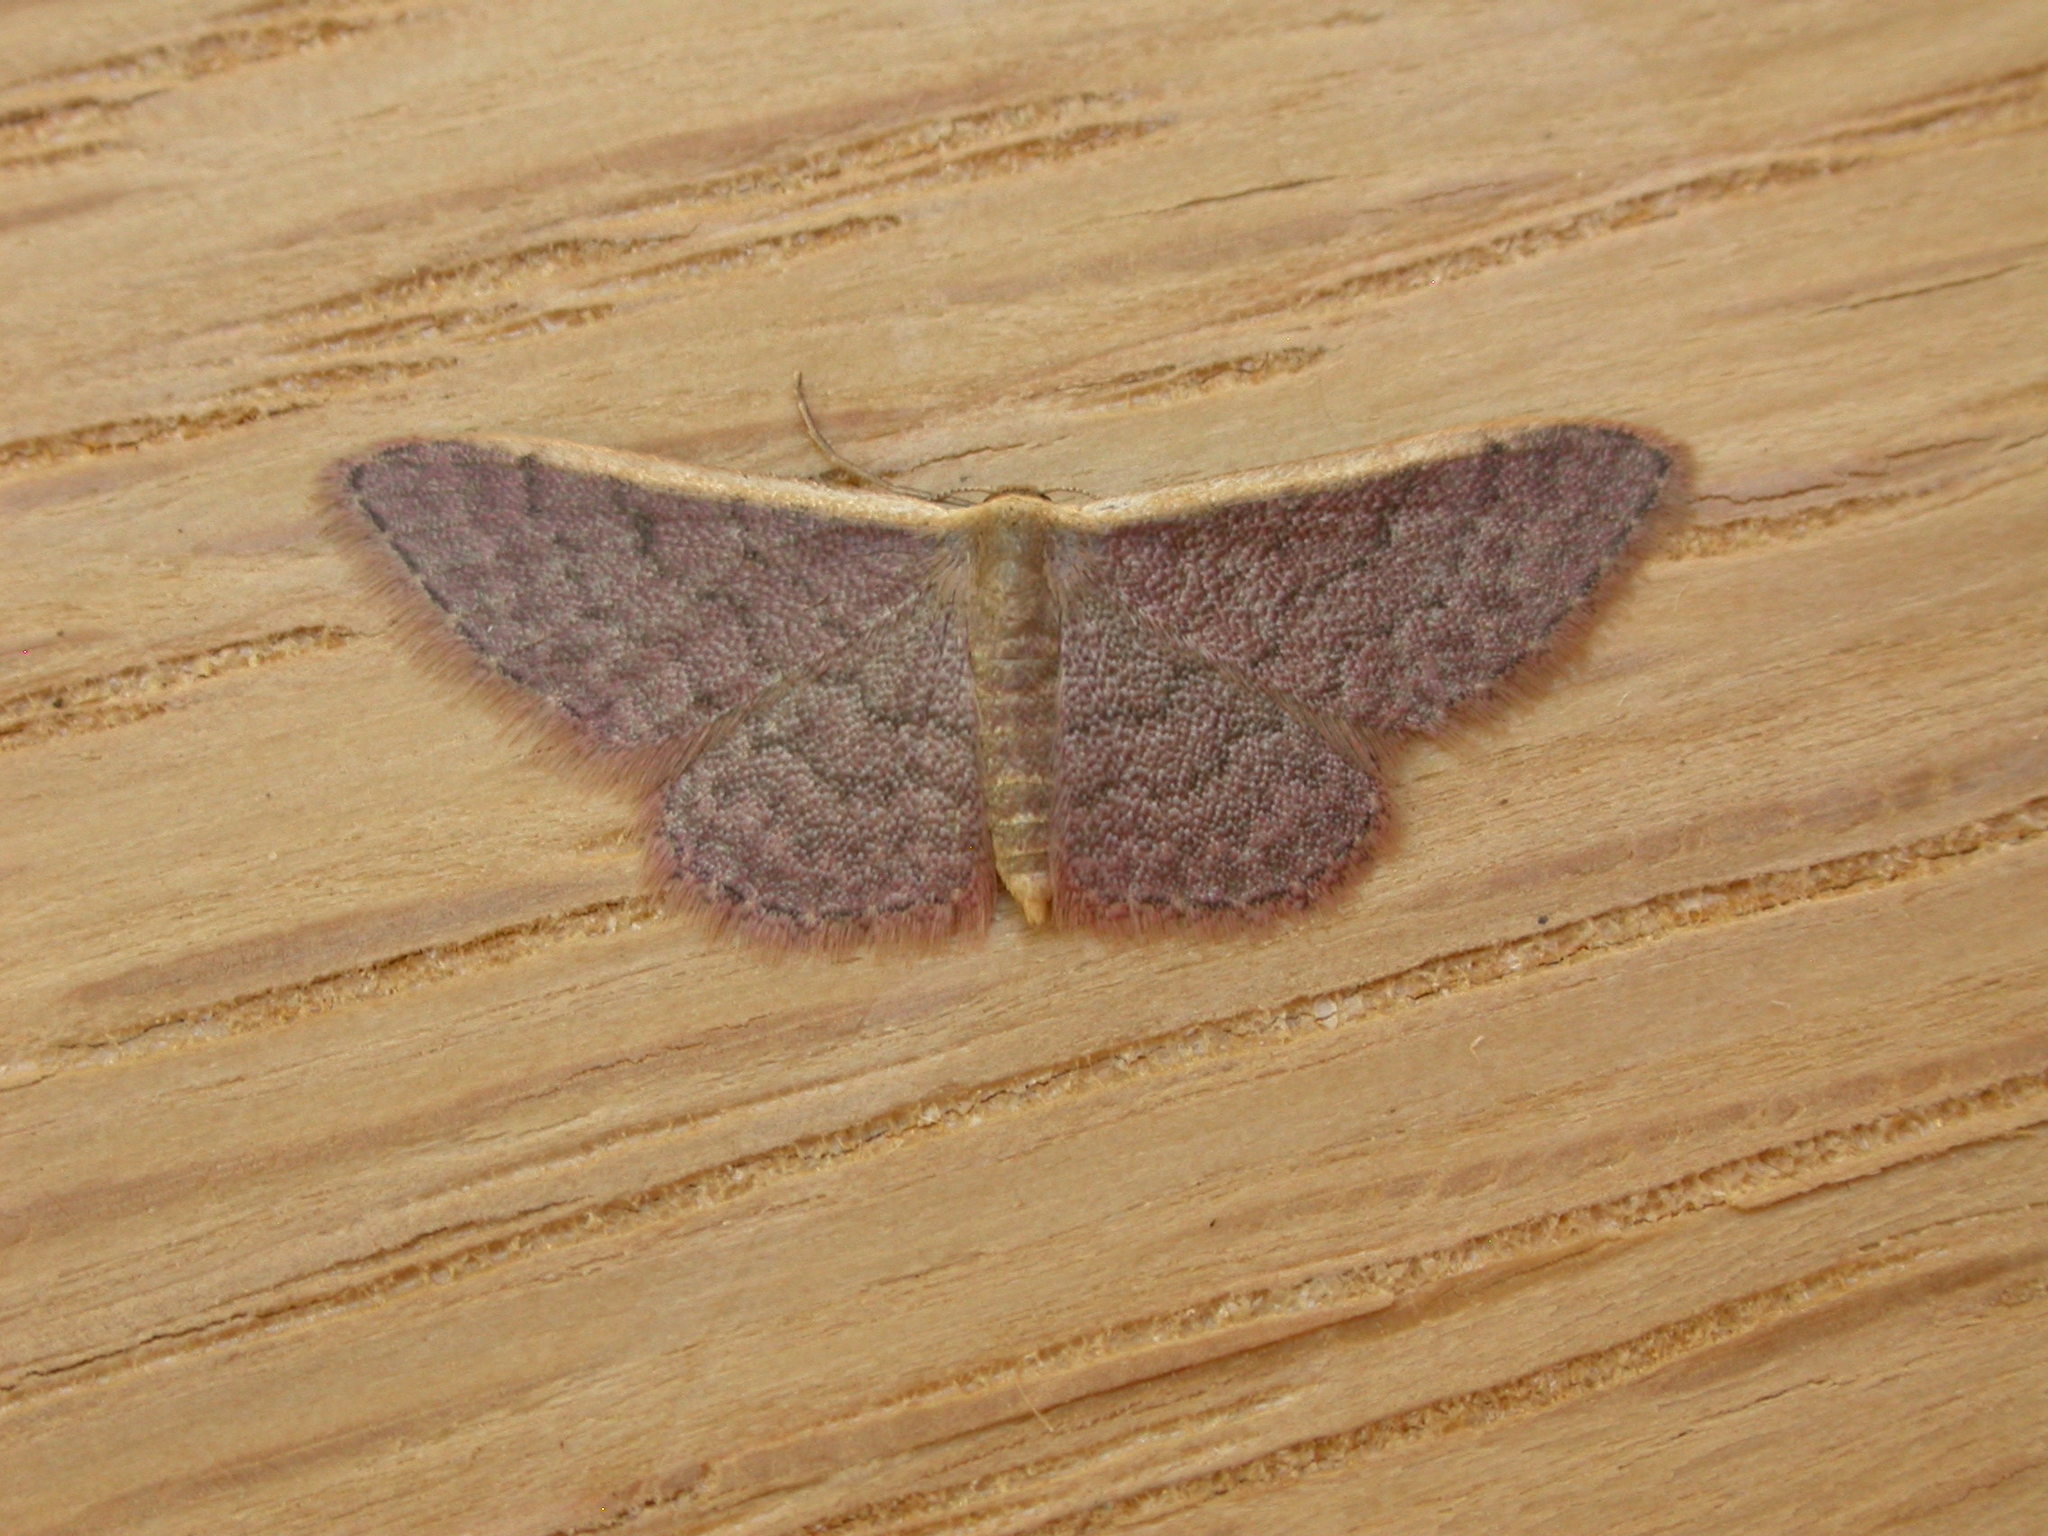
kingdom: Animalia
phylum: Arthropoda
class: Insecta
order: Lepidoptera
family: Geometridae
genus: Idaea
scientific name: Idaea costaria
